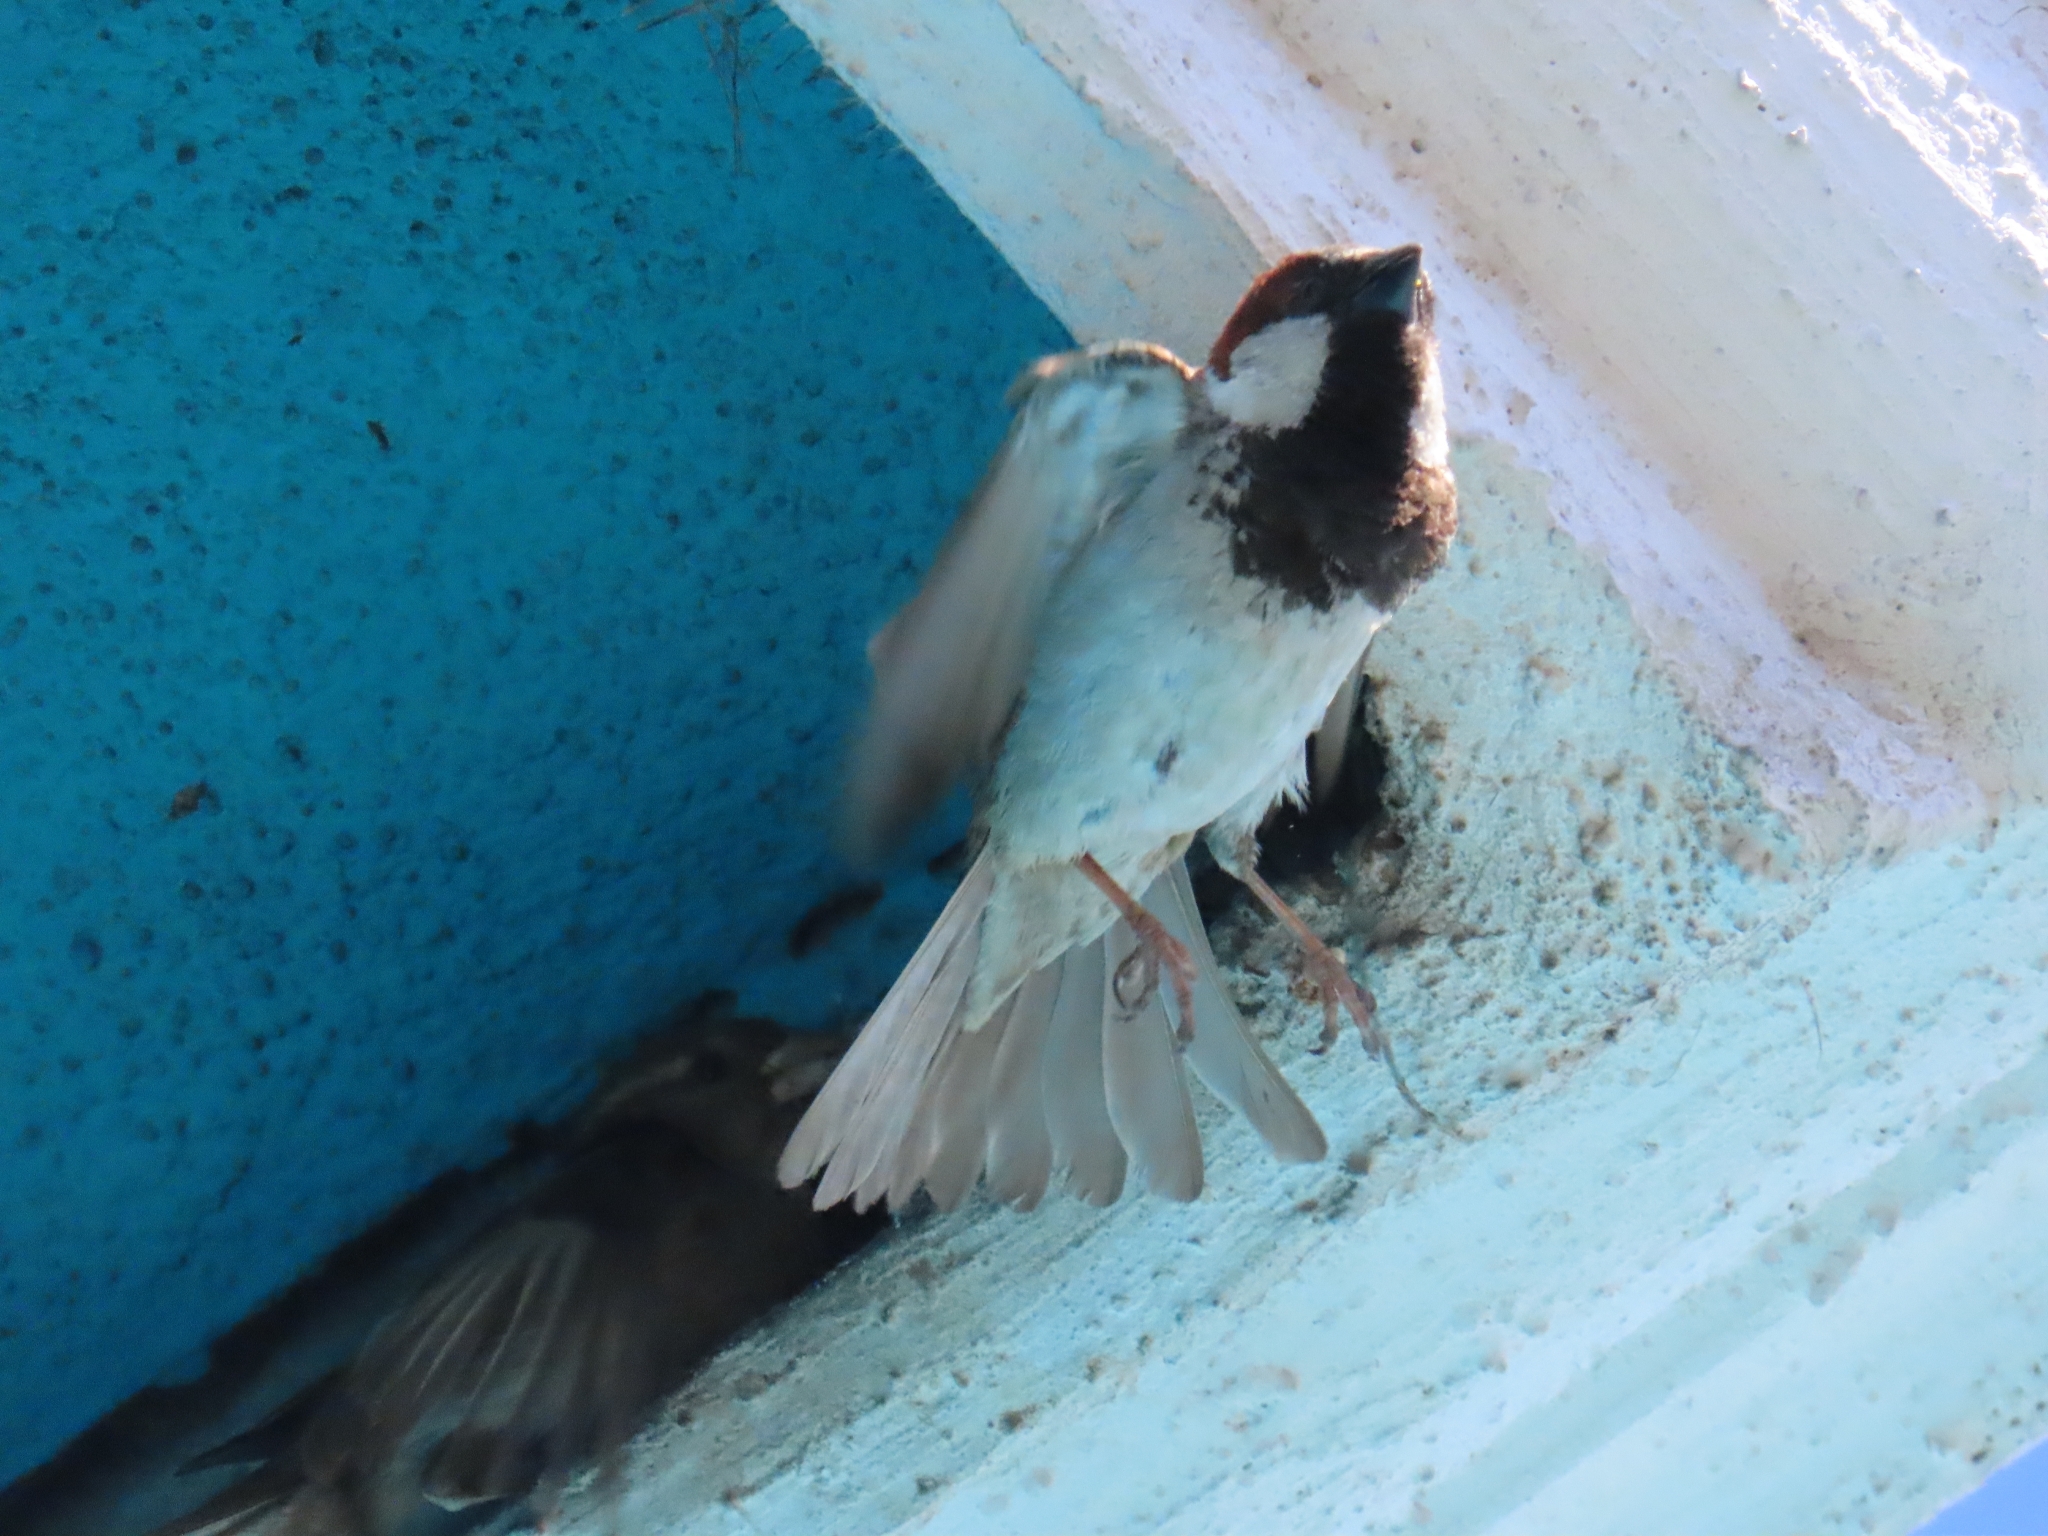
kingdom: Animalia
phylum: Chordata
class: Aves
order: Passeriformes
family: Passeridae
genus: Passer
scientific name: Passer domesticus
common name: House sparrow
